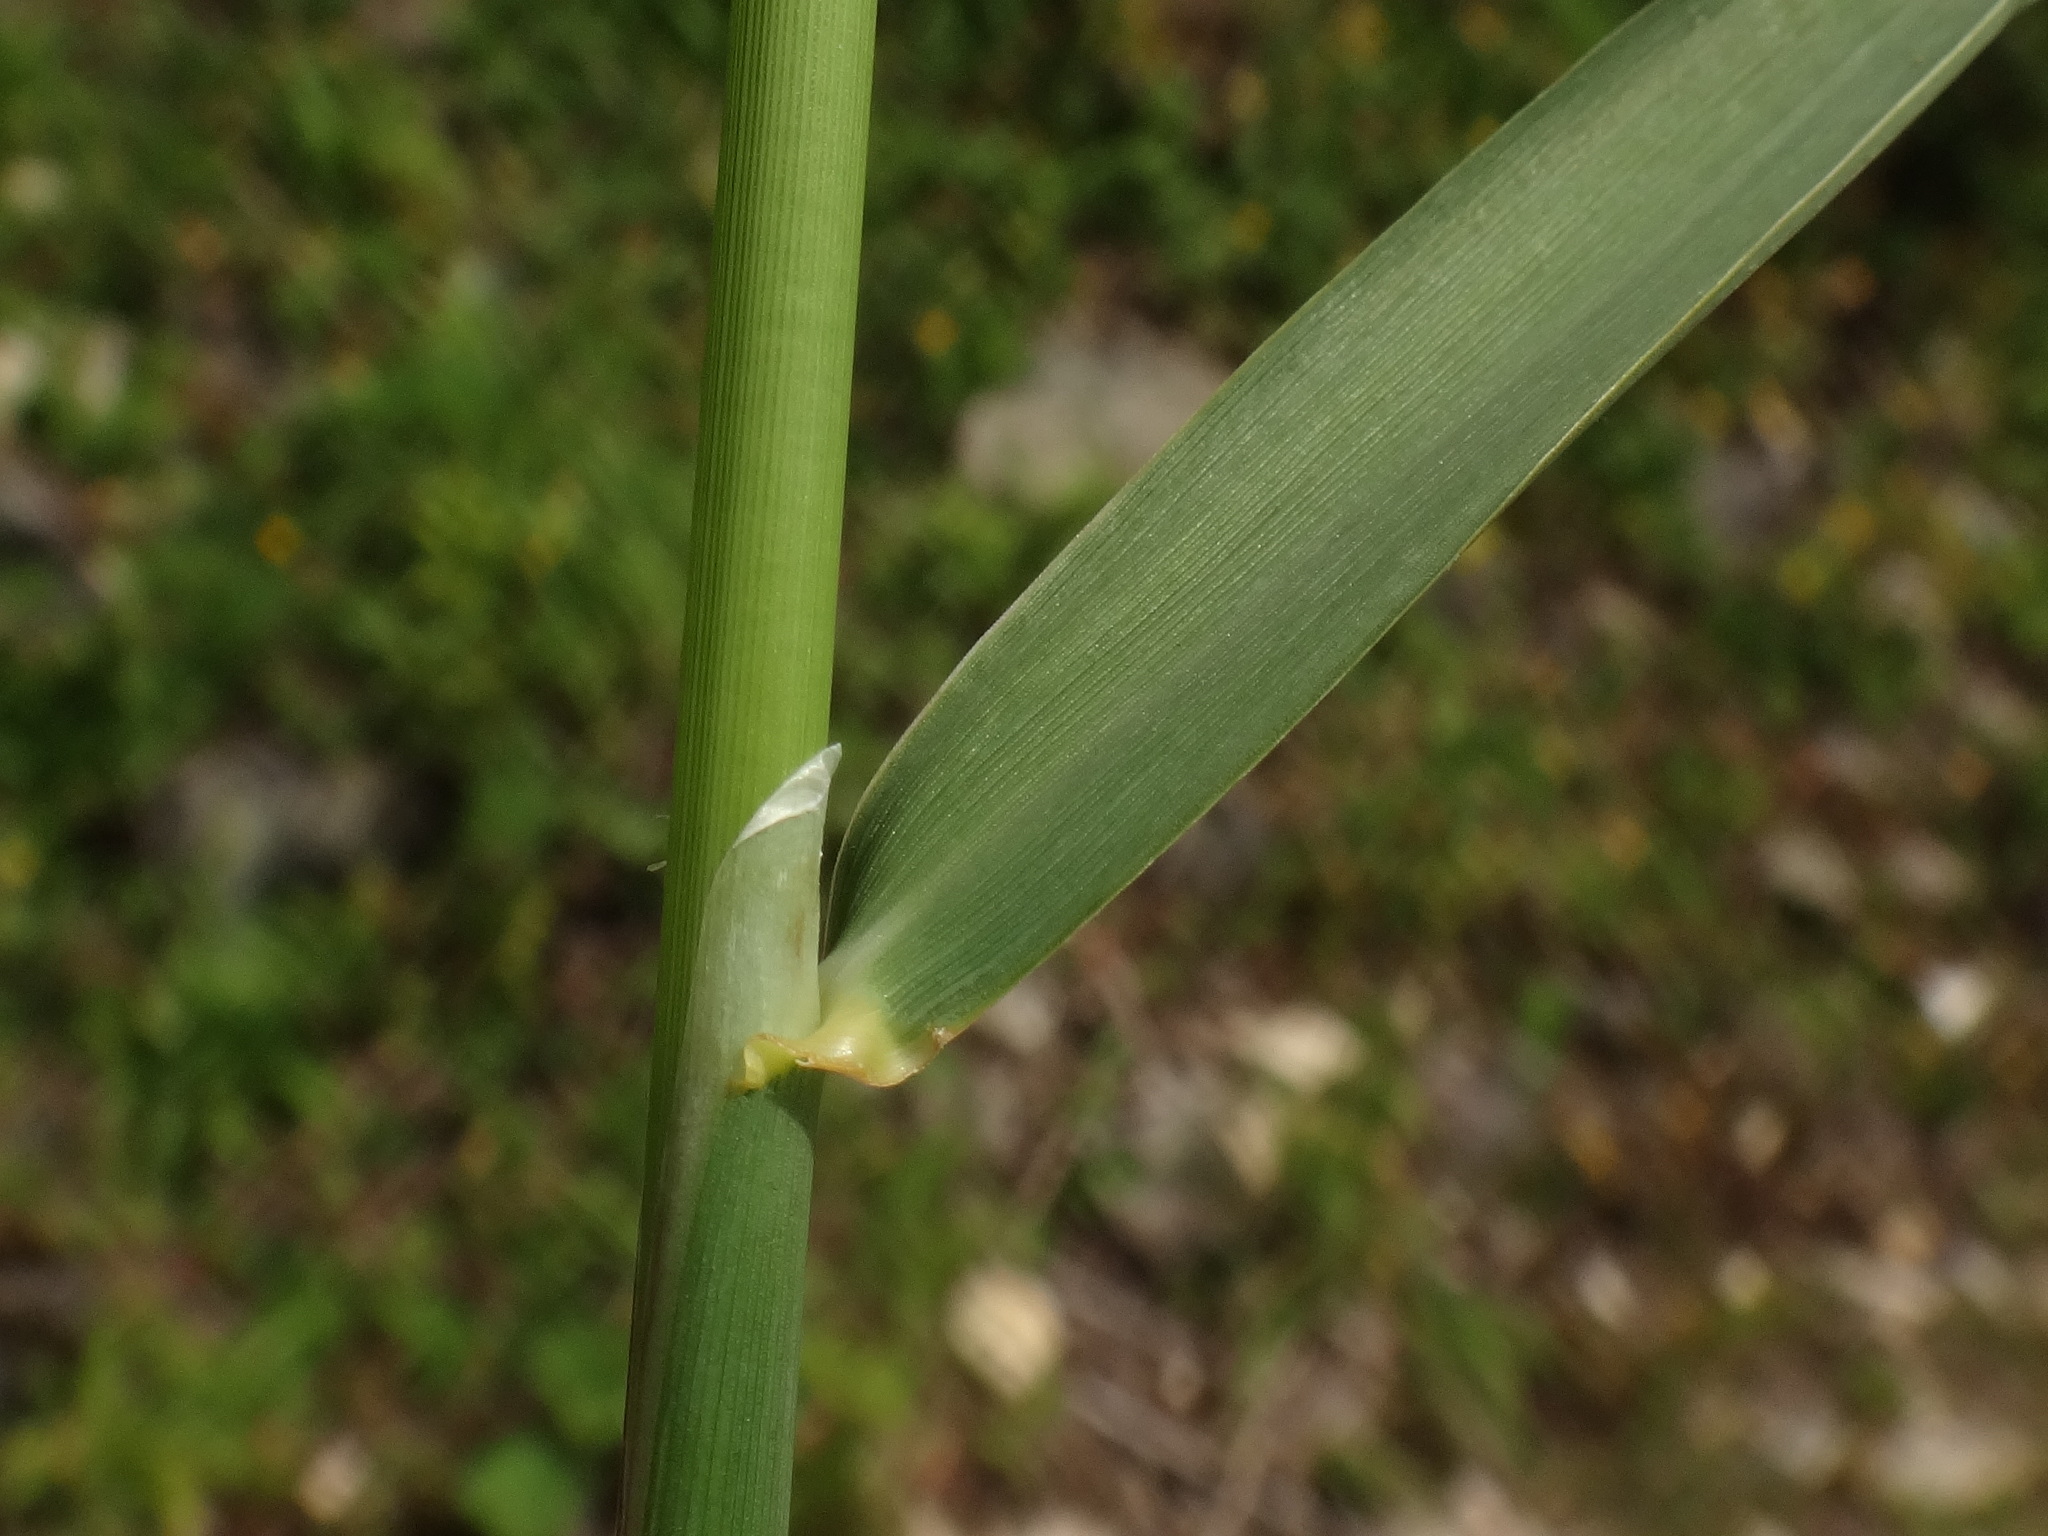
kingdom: Plantae
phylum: Tracheophyta
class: Liliopsida
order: Poales
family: Poaceae
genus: Phalaris
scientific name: Phalaris arundinacea
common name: Reed canary-grass
